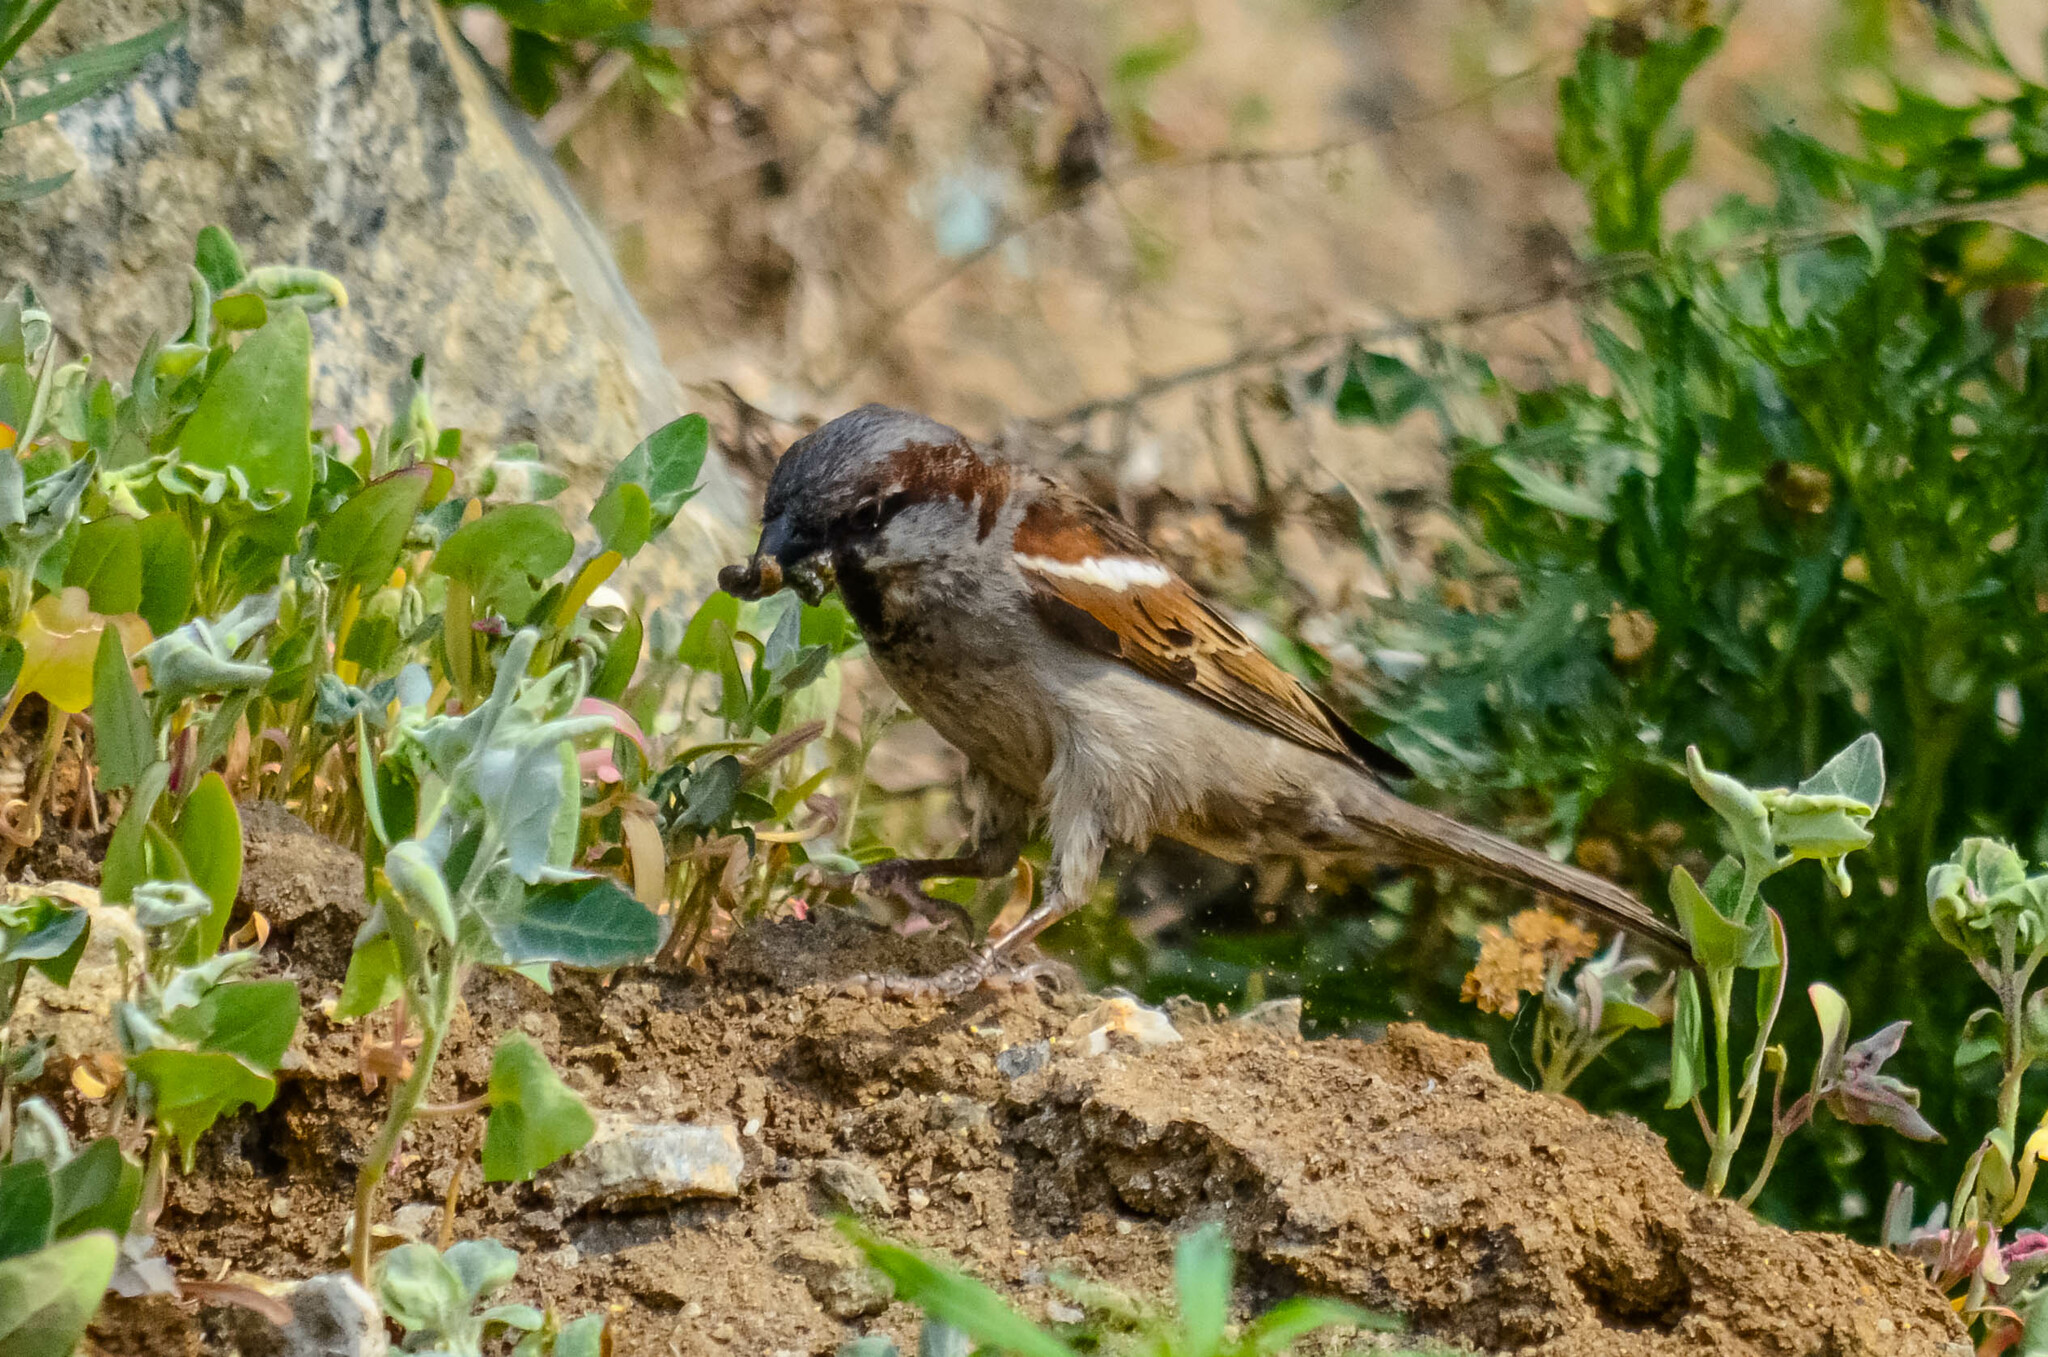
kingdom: Animalia
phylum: Chordata
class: Aves
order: Passeriformes
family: Passeridae
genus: Passer
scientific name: Passer domesticus
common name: House sparrow
